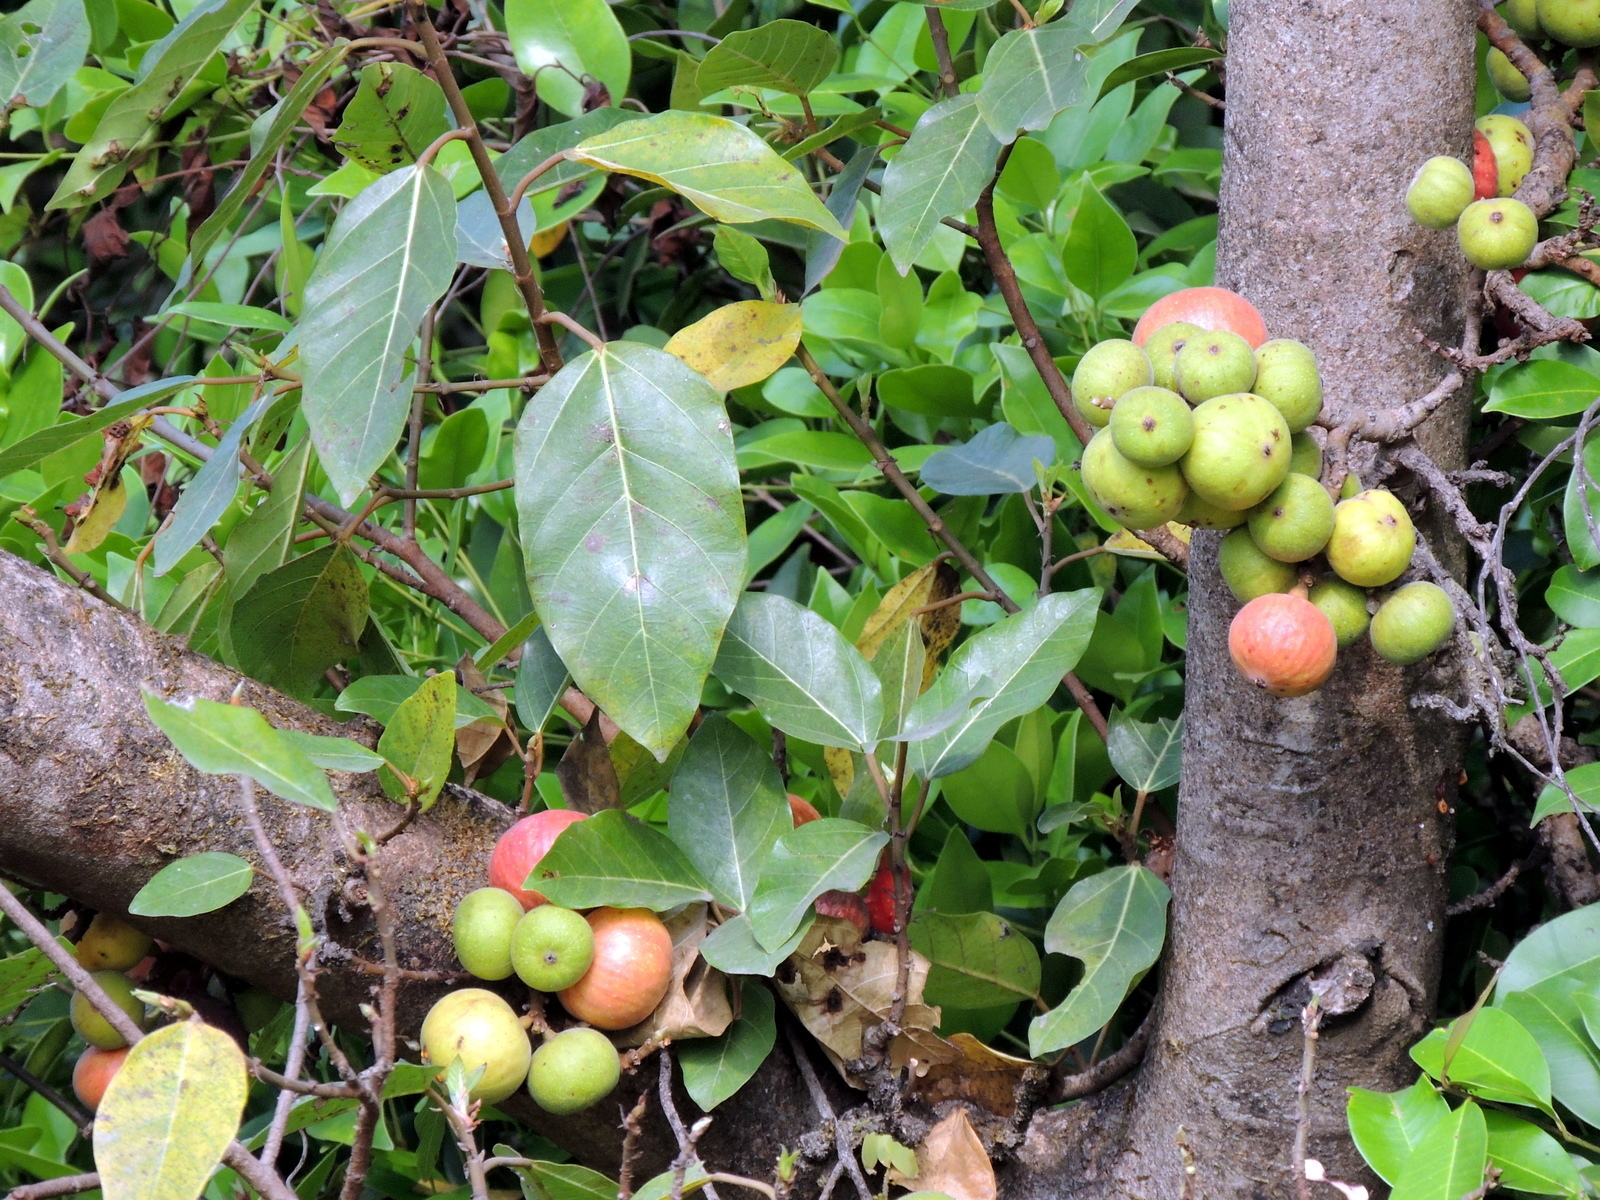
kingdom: Plantae
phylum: Tracheophyta
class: Magnoliopsida
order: Rosales
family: Moraceae
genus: Ficus
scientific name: Ficus racemosa
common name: Cluster fig
